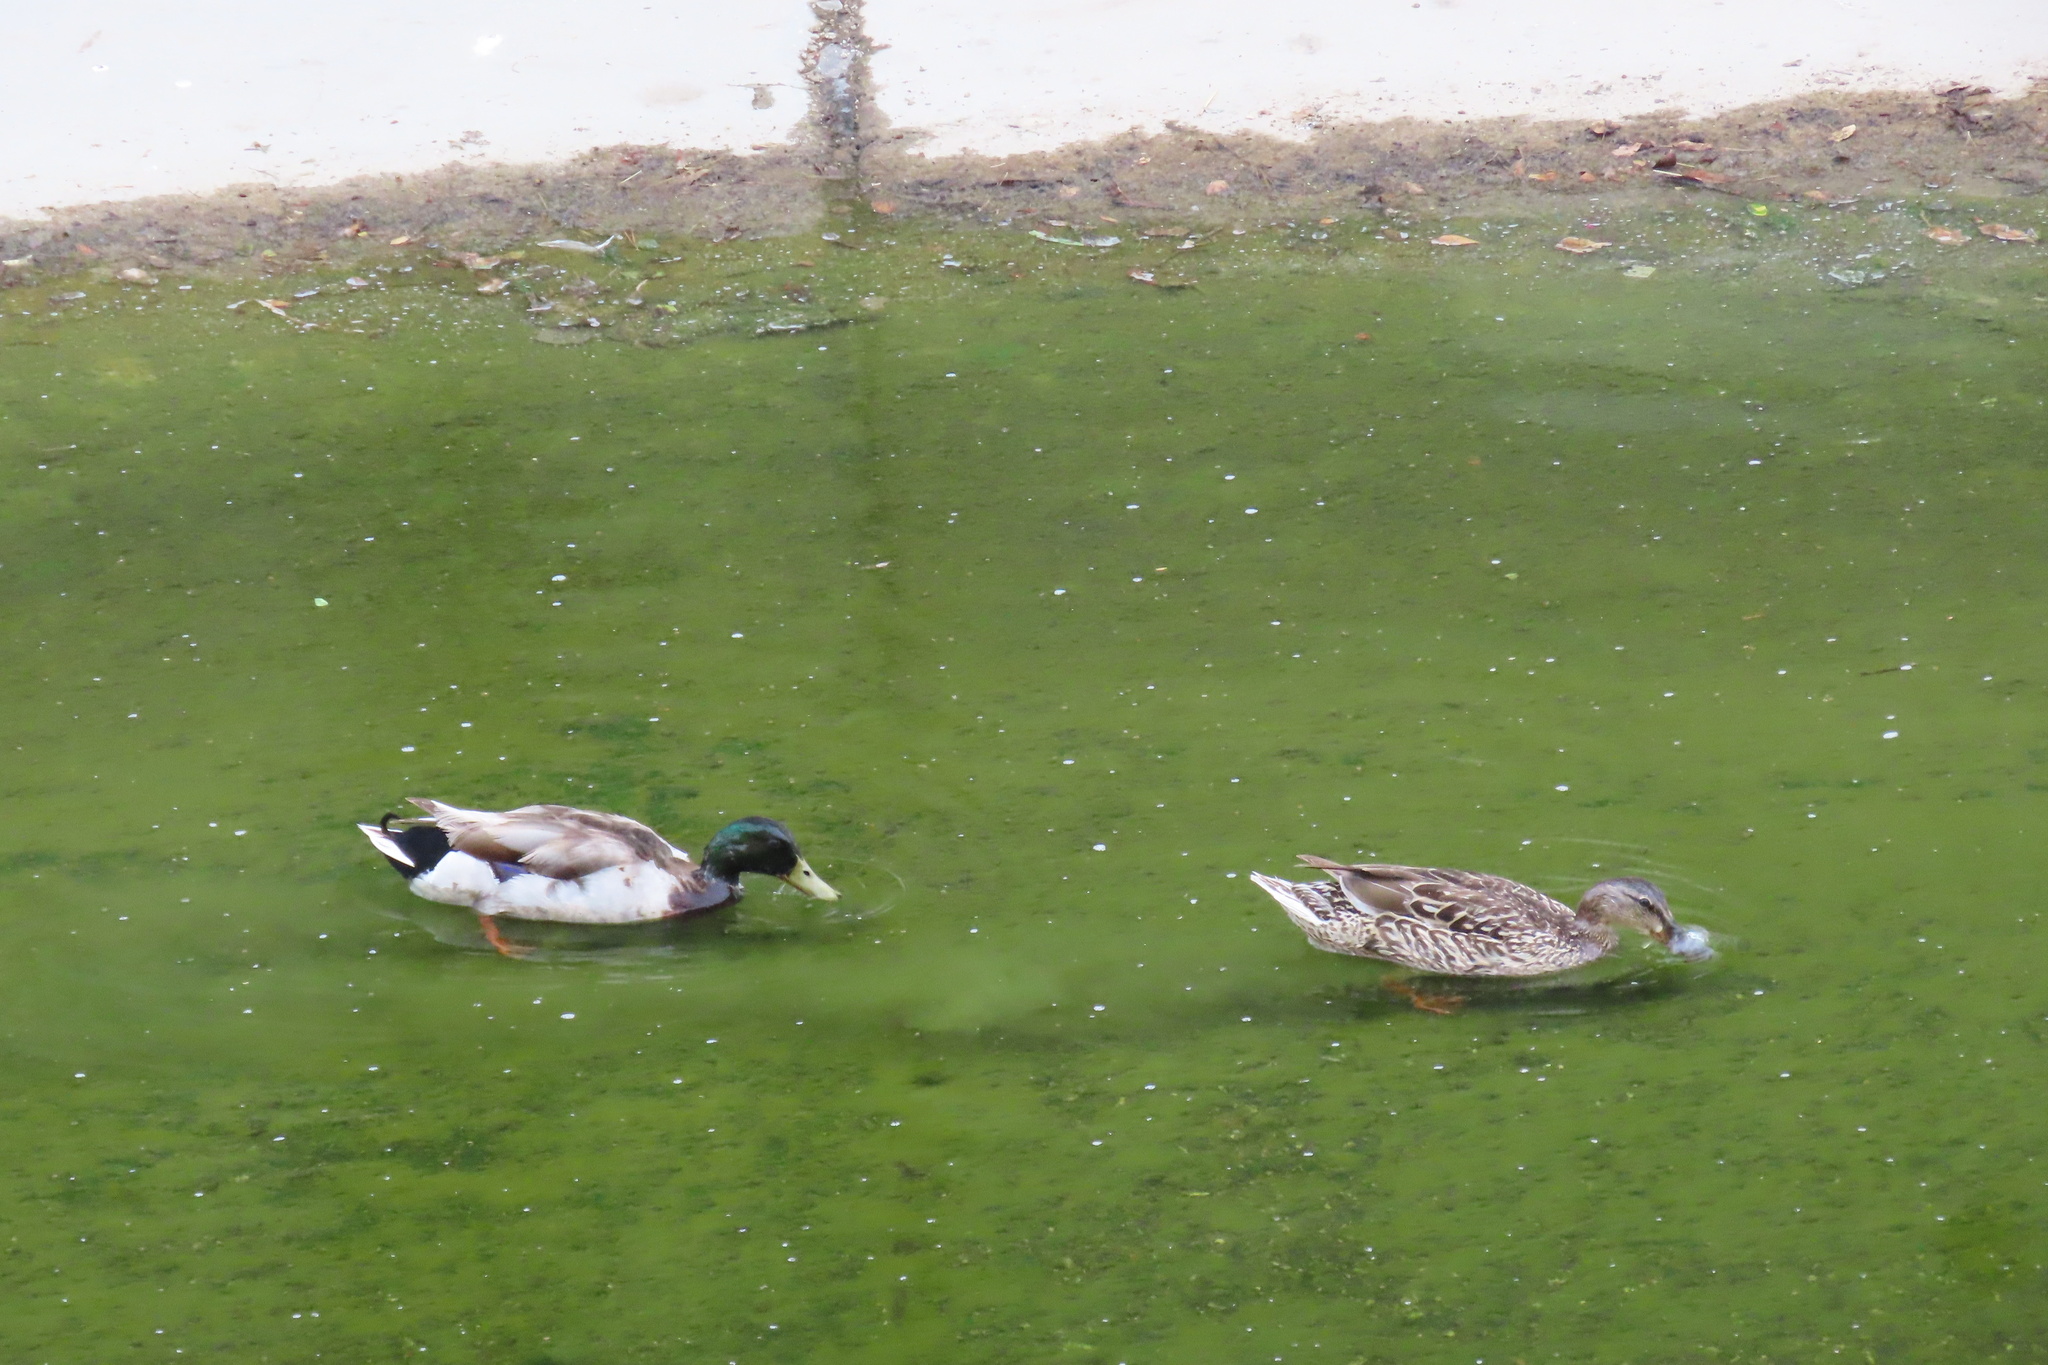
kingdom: Animalia
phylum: Chordata
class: Aves
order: Anseriformes
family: Anatidae
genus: Anas
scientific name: Anas platyrhynchos
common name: Mallard
